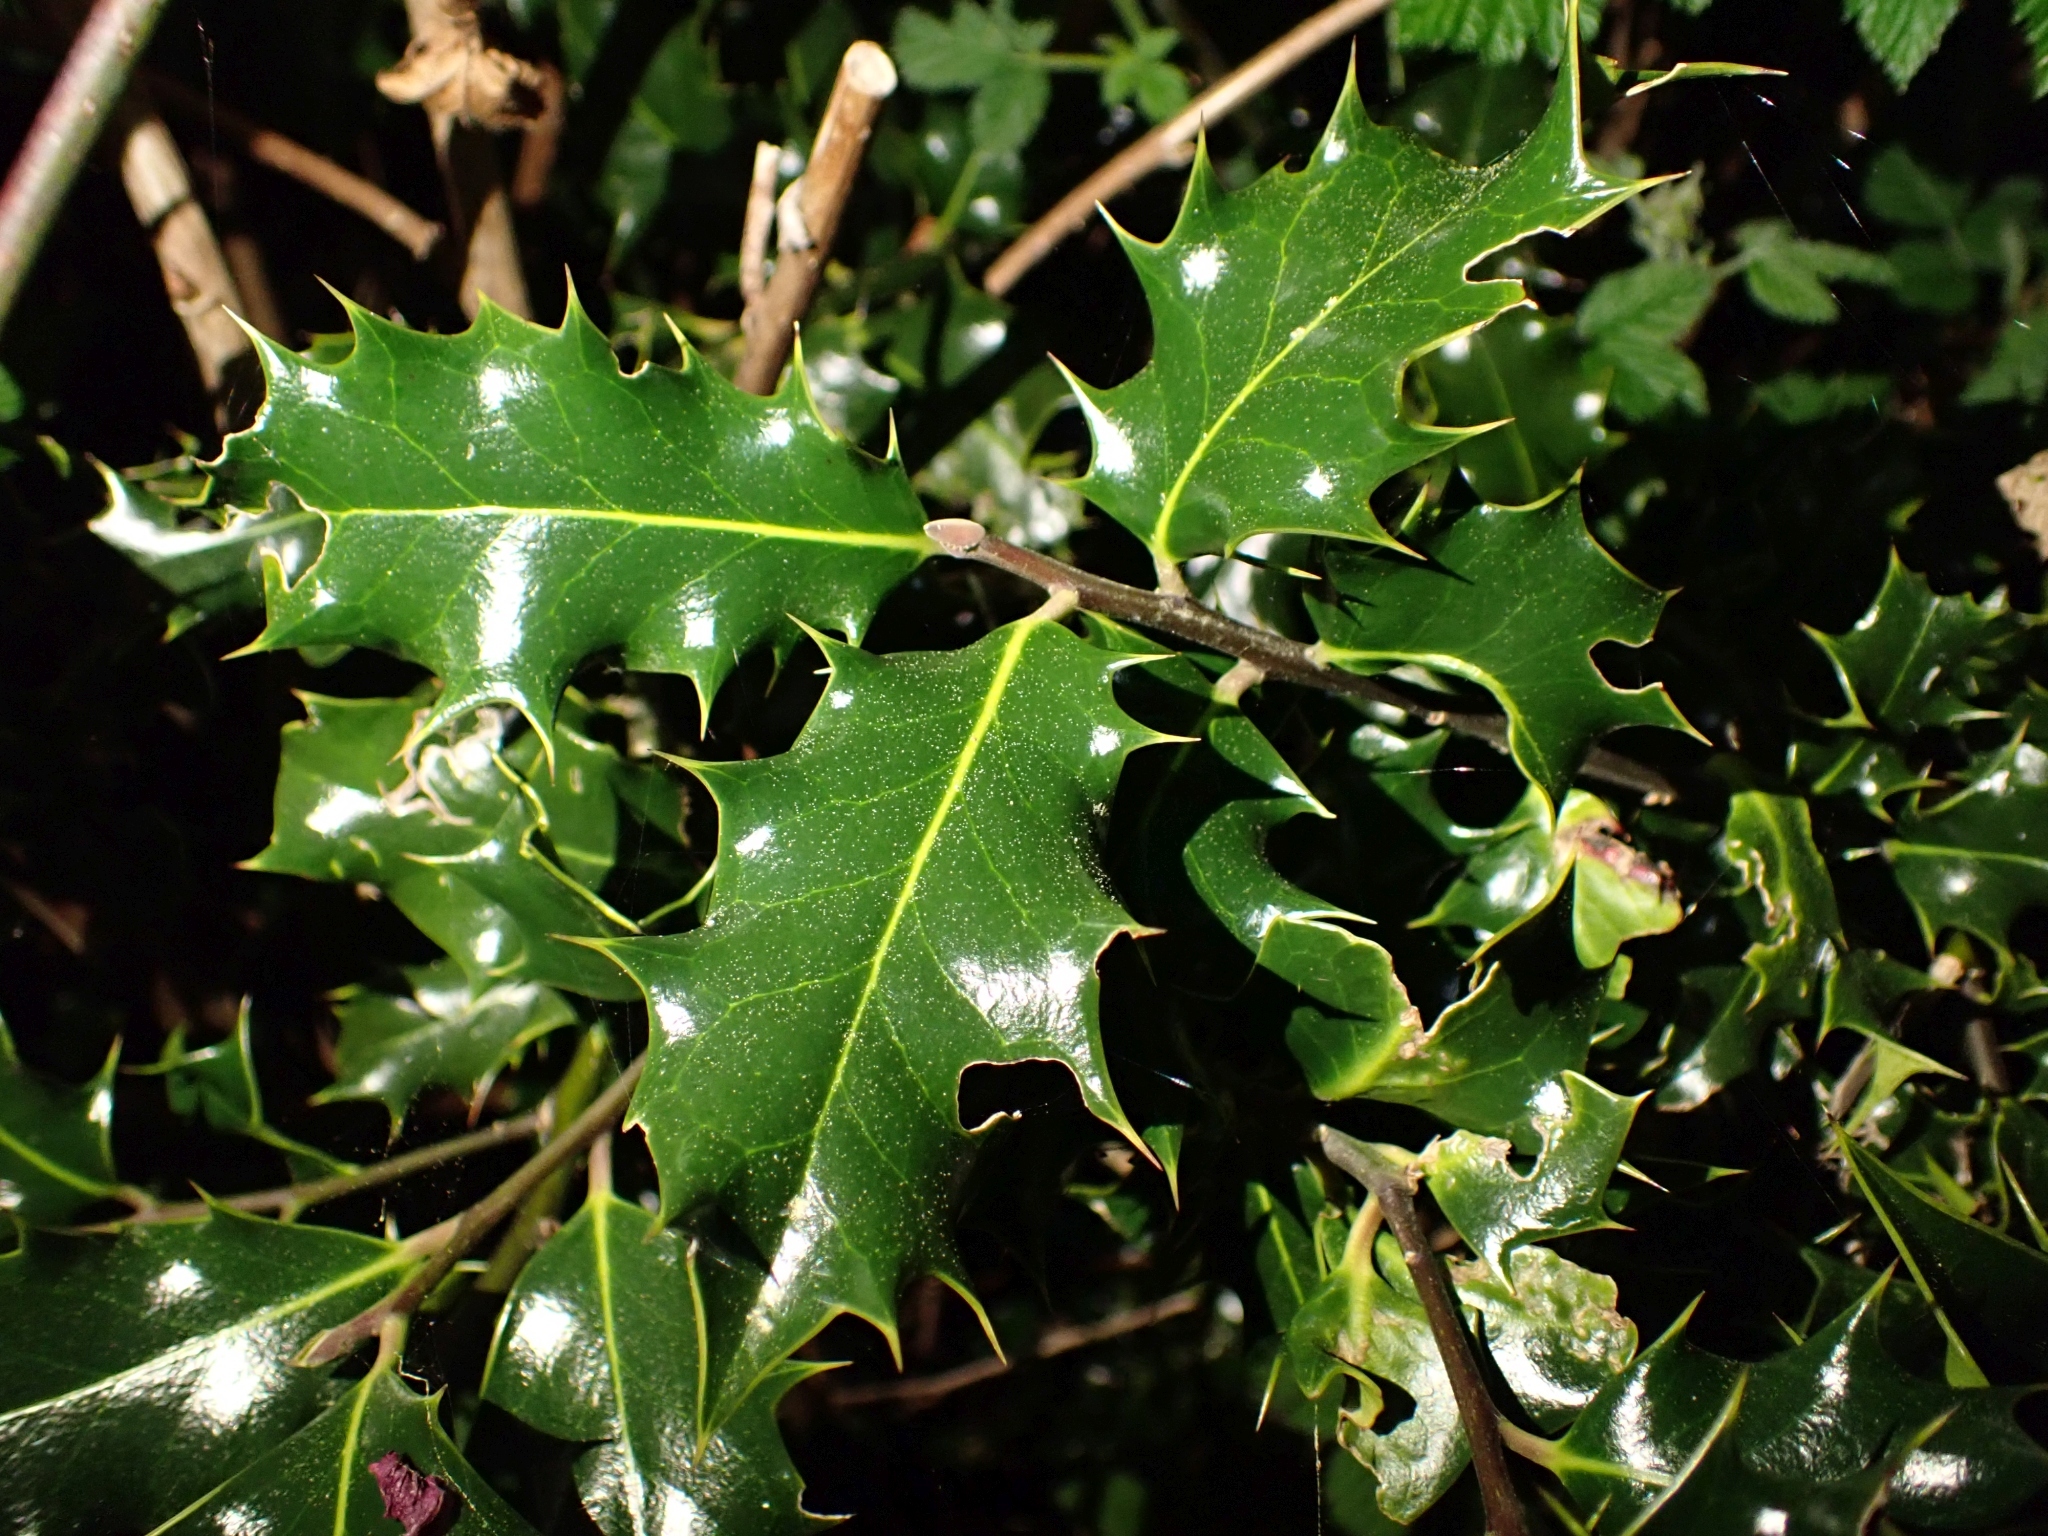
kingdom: Plantae
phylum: Tracheophyta
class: Magnoliopsida
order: Aquifoliales
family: Aquifoliaceae
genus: Ilex
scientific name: Ilex aquifolium
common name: English holly
